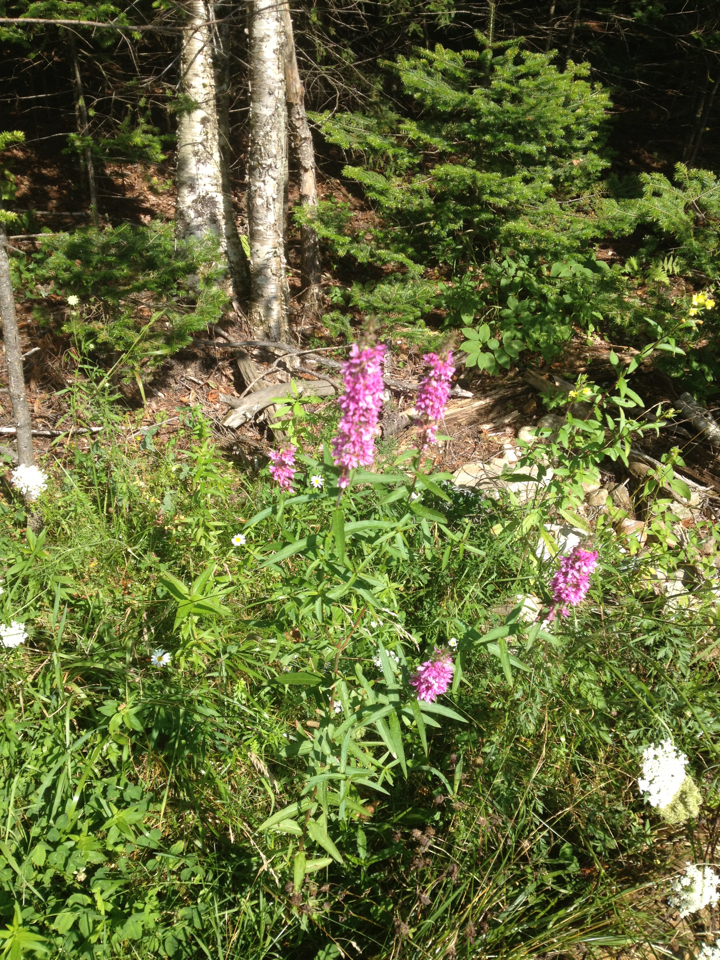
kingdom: Plantae
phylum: Tracheophyta
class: Magnoliopsida
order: Myrtales
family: Lythraceae
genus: Lythrum
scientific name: Lythrum salicaria
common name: Purple loosestrife
